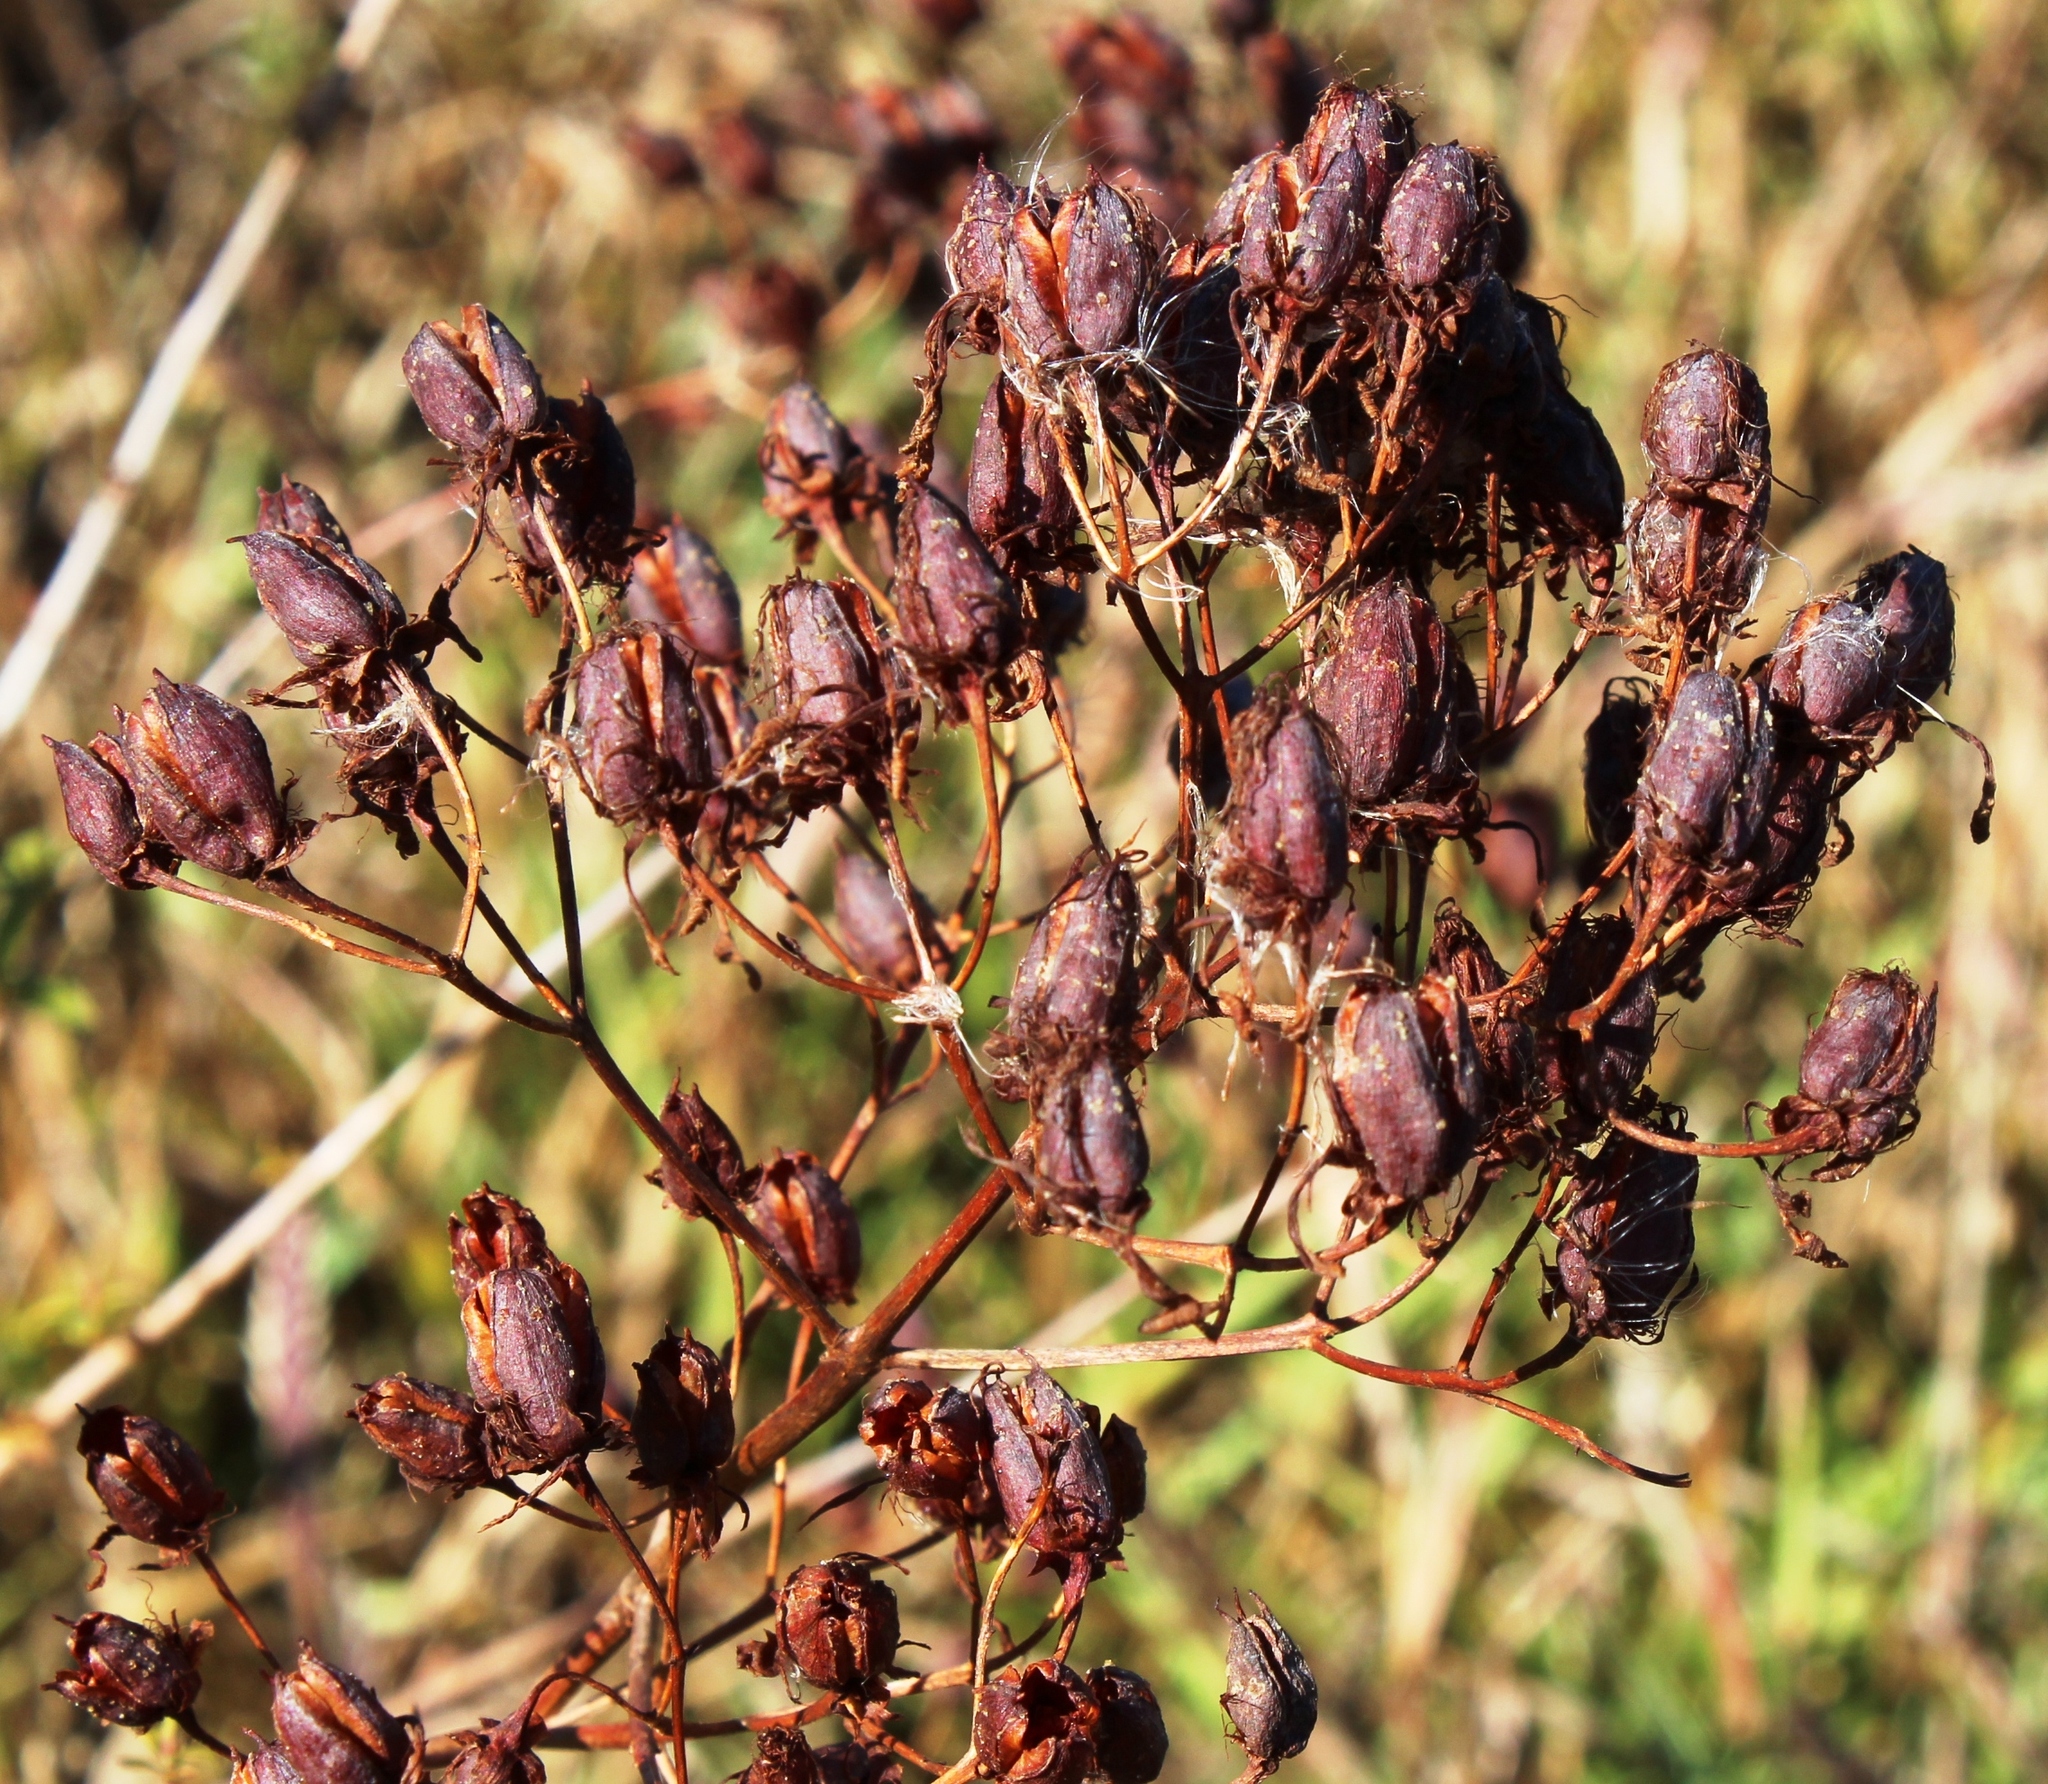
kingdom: Plantae
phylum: Tracheophyta
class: Magnoliopsida
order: Malpighiales
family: Hypericaceae
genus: Hypericum
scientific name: Hypericum canariense
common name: Canary island st. johnswort
